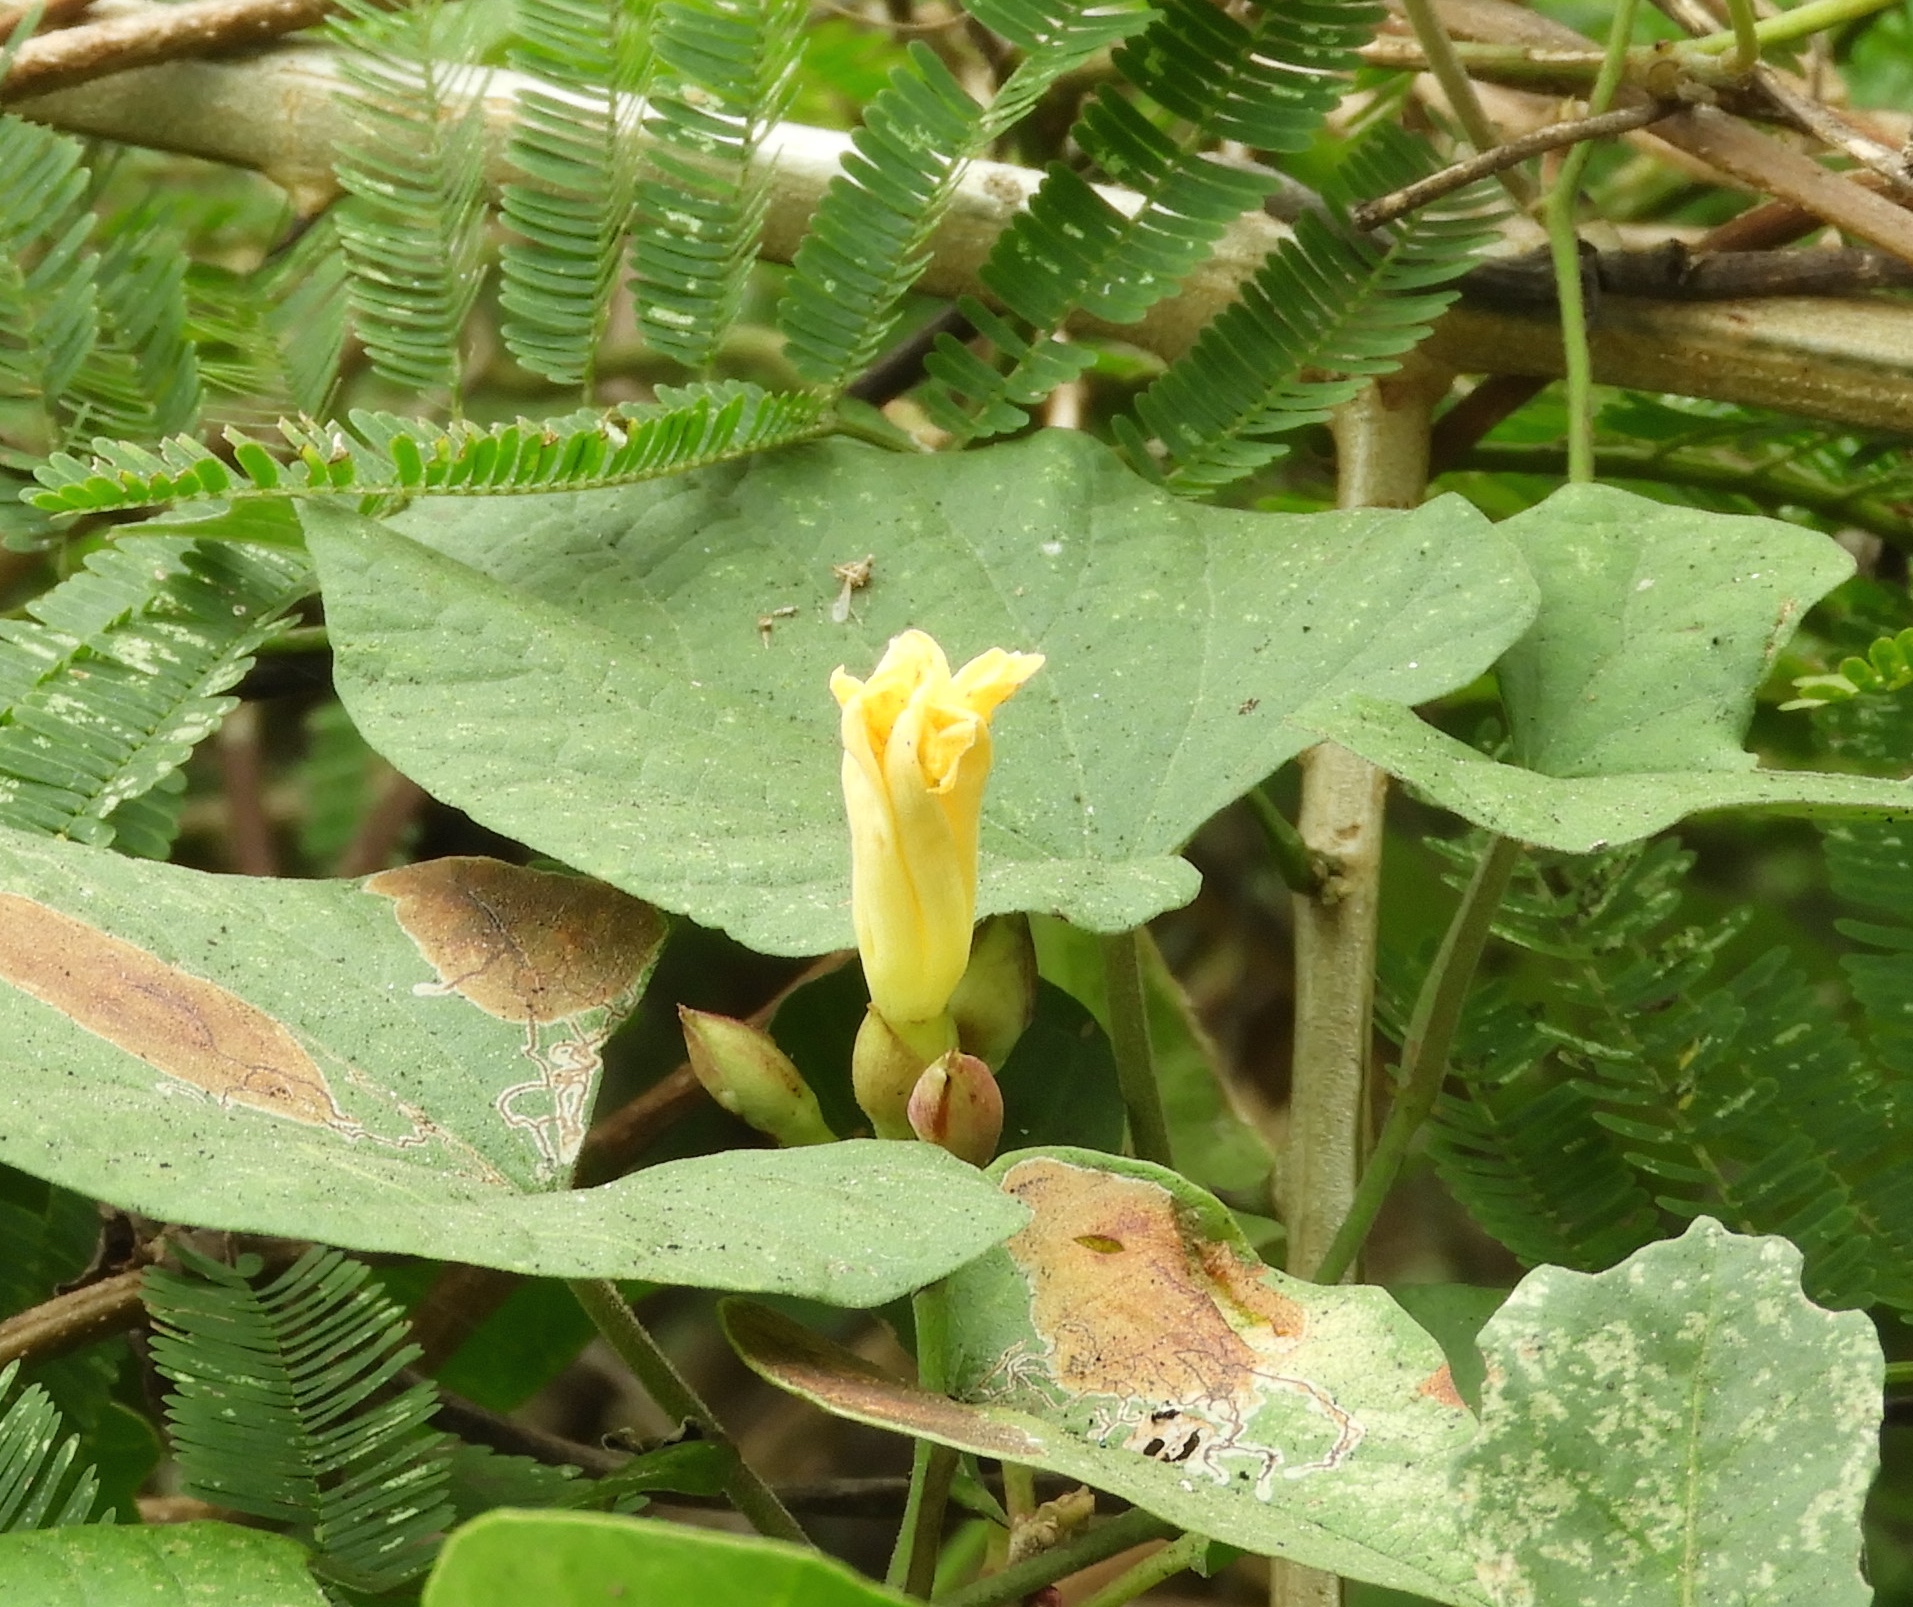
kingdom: Plantae
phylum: Tracheophyta
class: Magnoliopsida
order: Solanales
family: Convolvulaceae
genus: Camonea
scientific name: Camonea umbellata
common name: Hogvine
